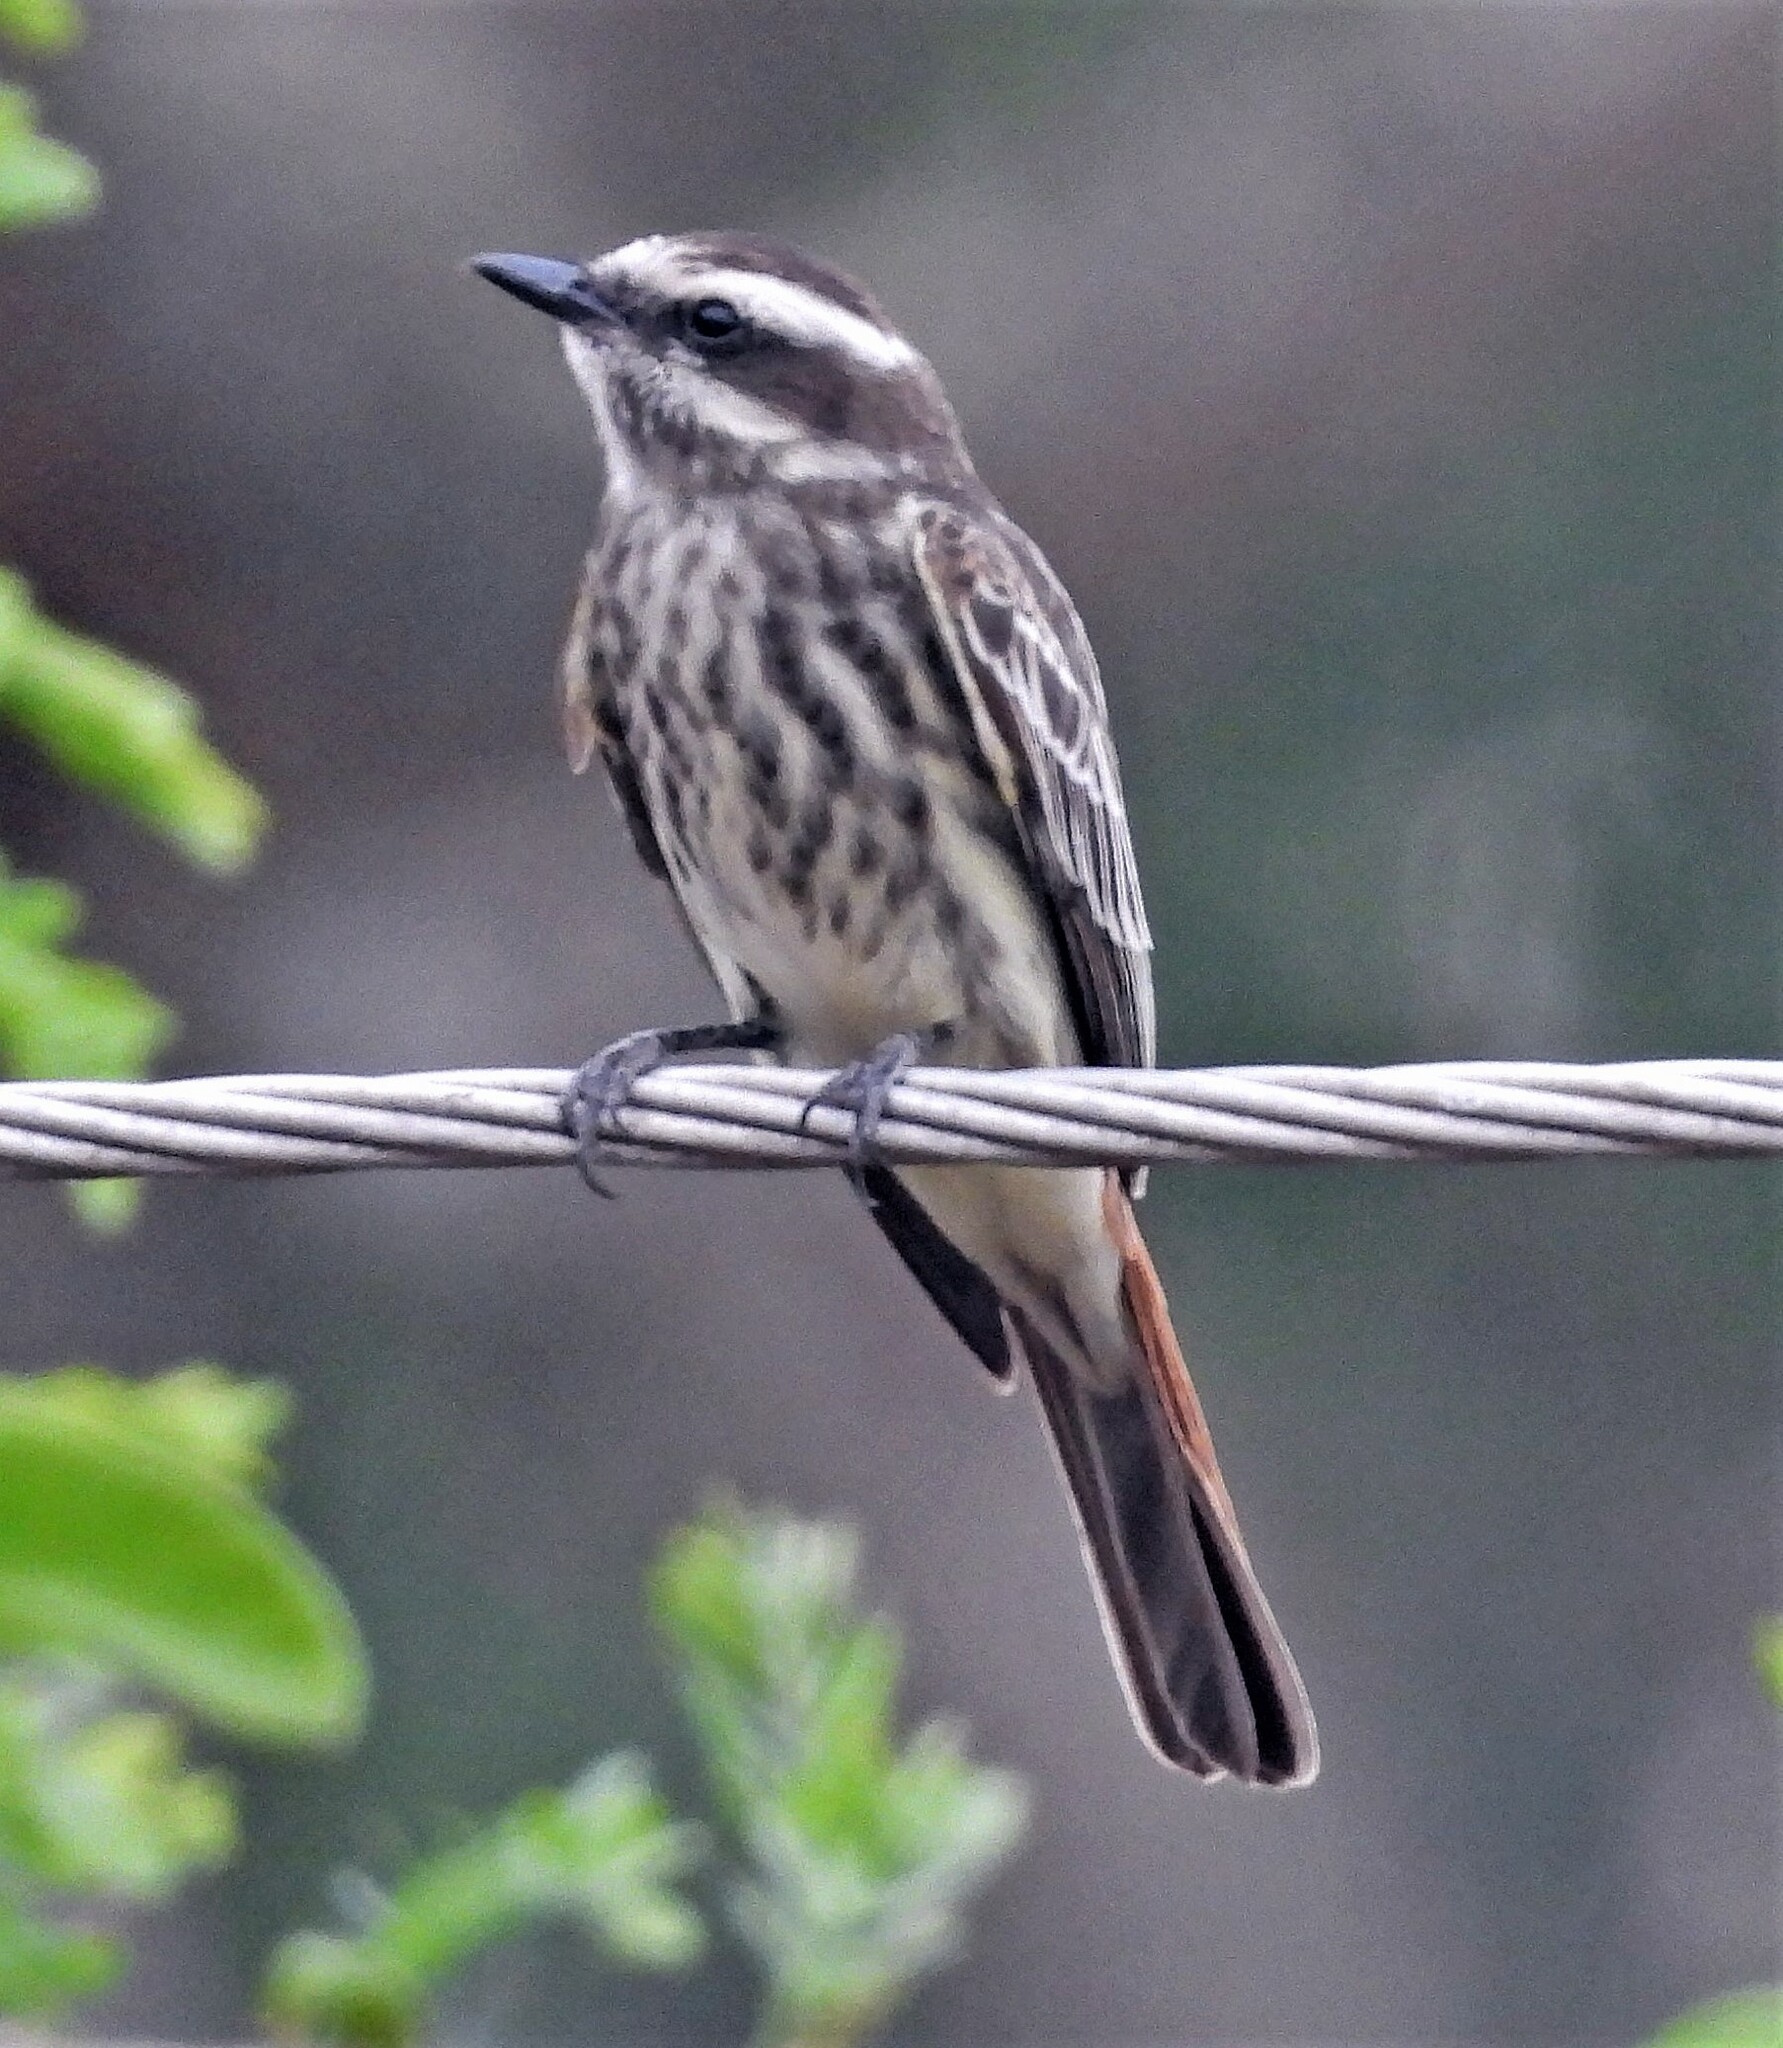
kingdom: Animalia
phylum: Chordata
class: Aves
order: Passeriformes
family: Tyrannidae
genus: Empidonomus
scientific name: Empidonomus varius
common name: Variegated flycatcher
